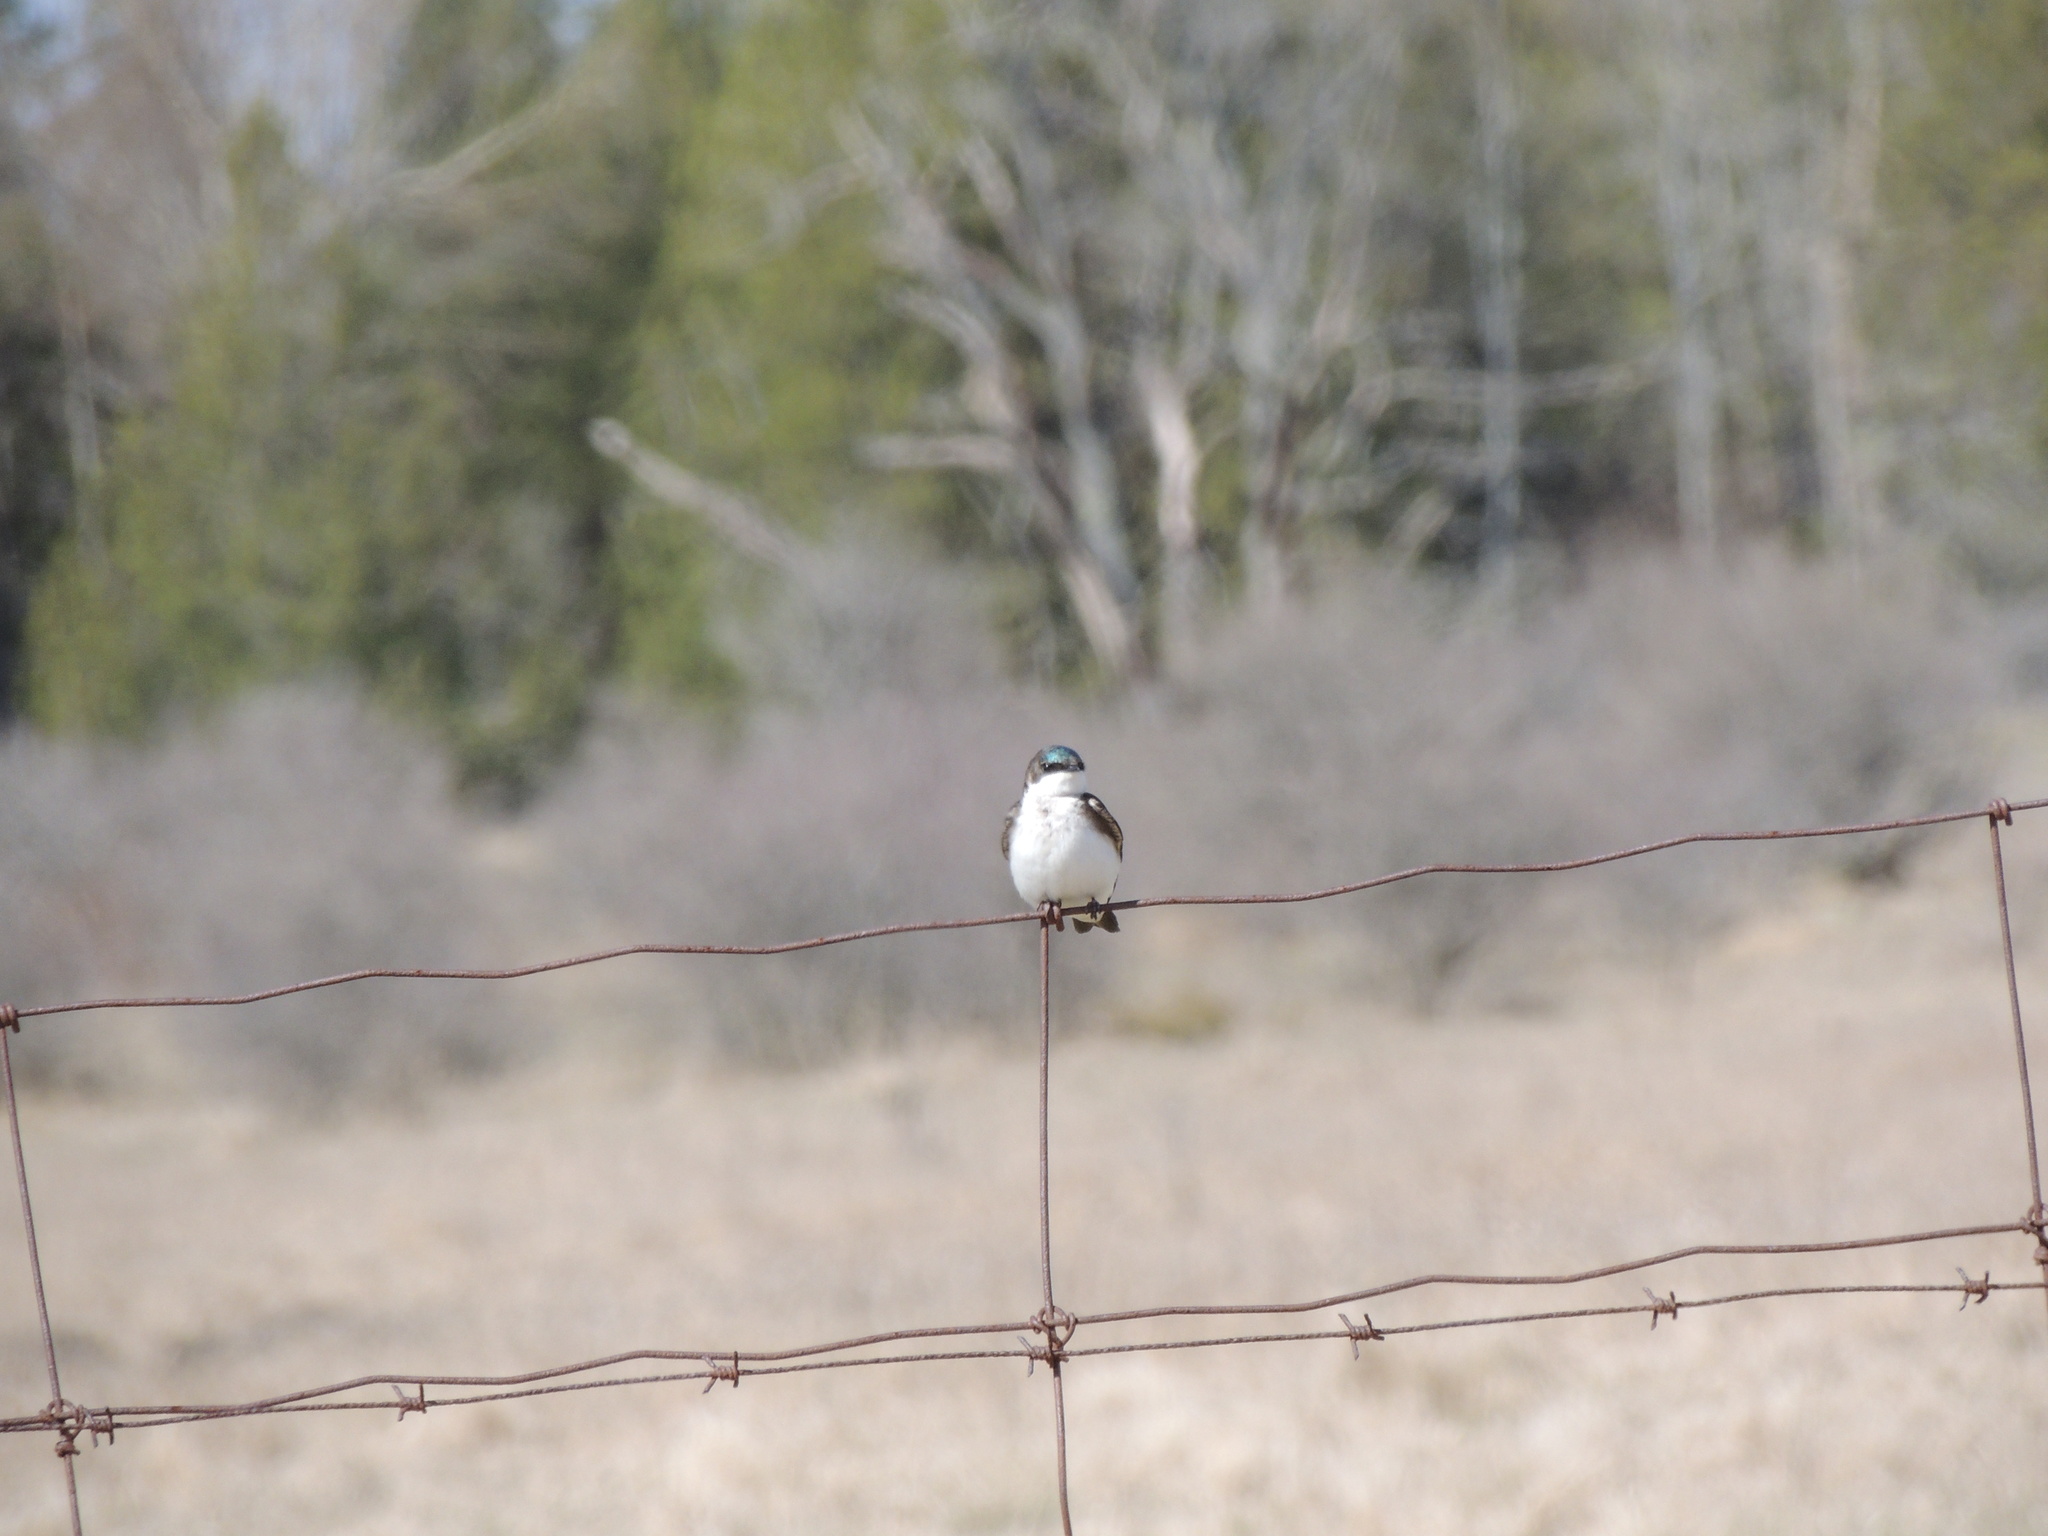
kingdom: Animalia
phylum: Chordata
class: Aves
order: Passeriformes
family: Hirundinidae
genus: Tachycineta
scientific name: Tachycineta bicolor
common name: Tree swallow
